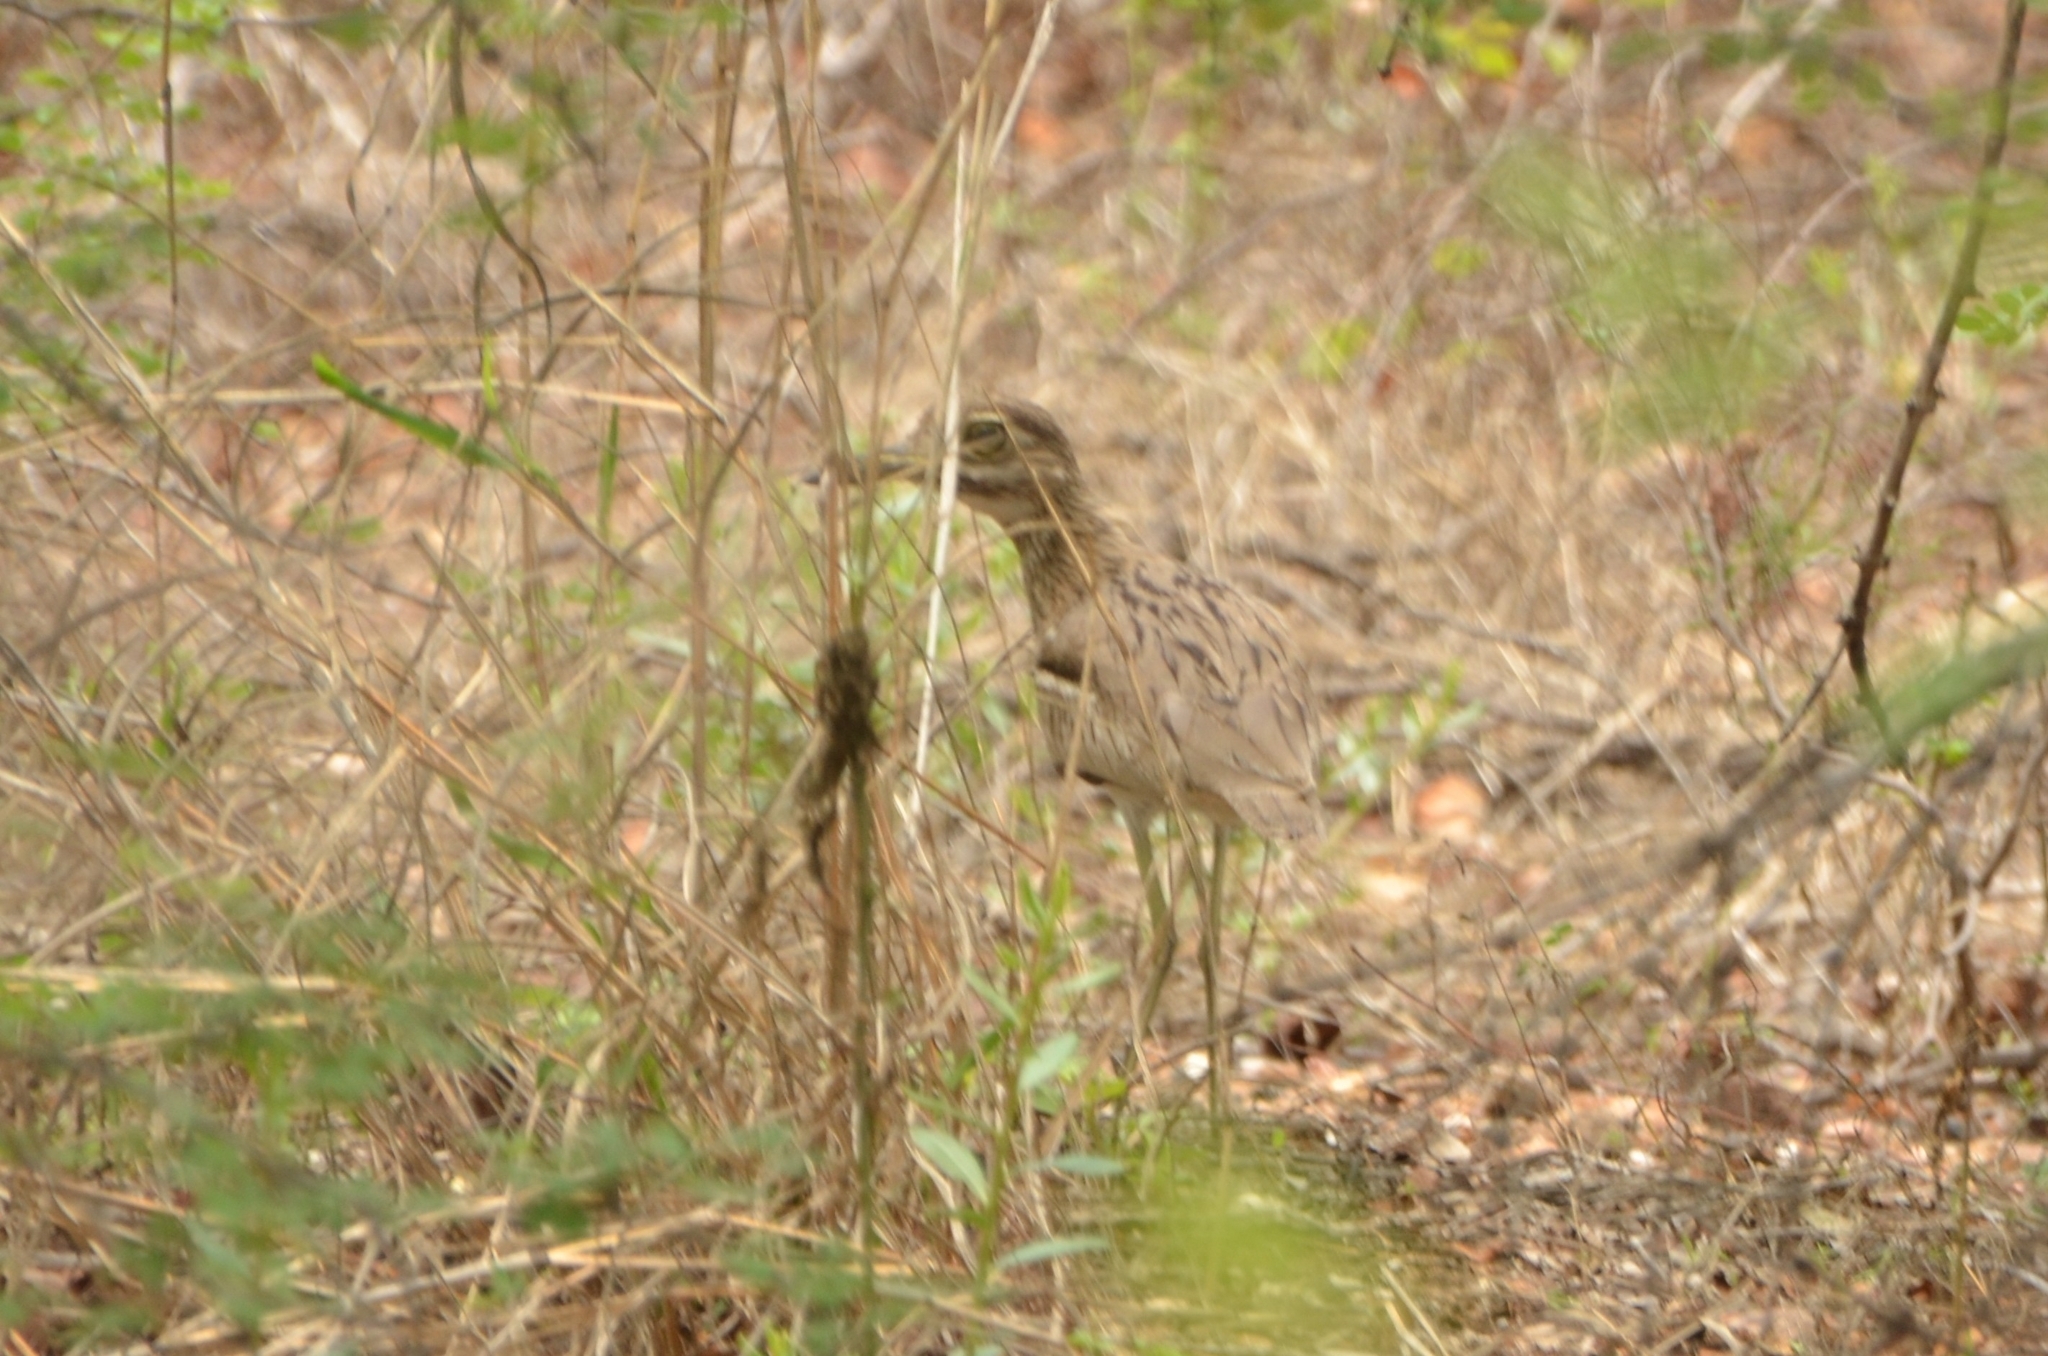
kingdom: Animalia
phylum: Chordata
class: Aves
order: Charadriiformes
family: Burhinidae
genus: Burhinus
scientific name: Burhinus vermiculatus
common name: Water thick-knee
